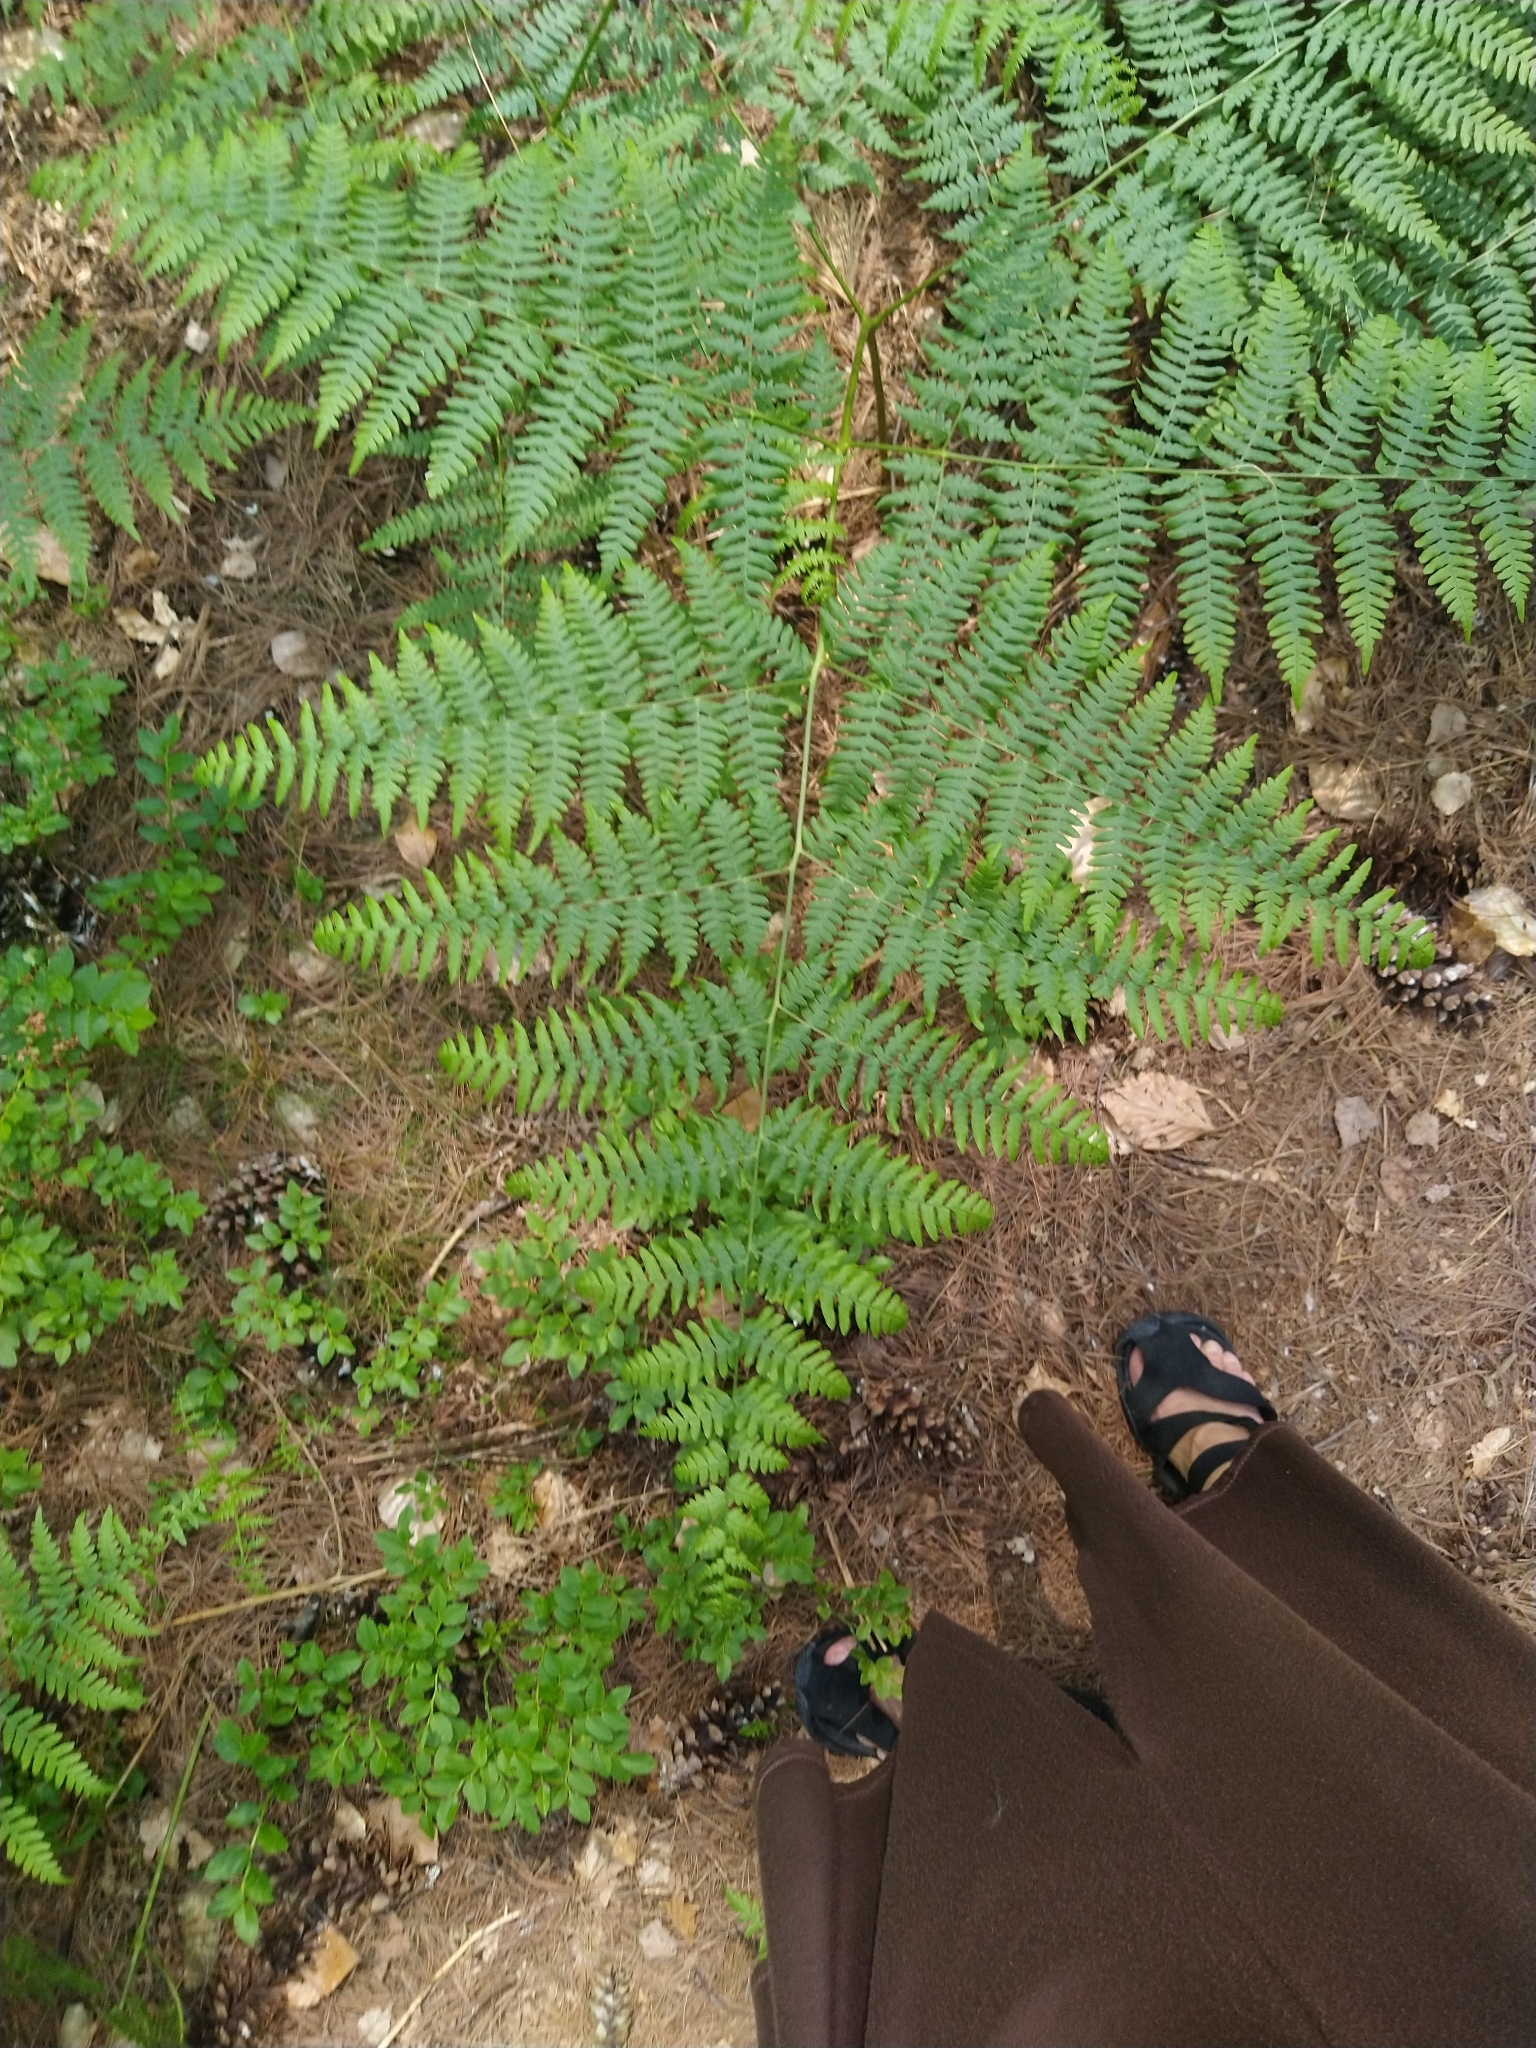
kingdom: Plantae
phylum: Tracheophyta
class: Polypodiopsida
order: Polypodiales
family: Dennstaedtiaceae
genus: Pteridium
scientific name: Pteridium aquilinum
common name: Bracken
